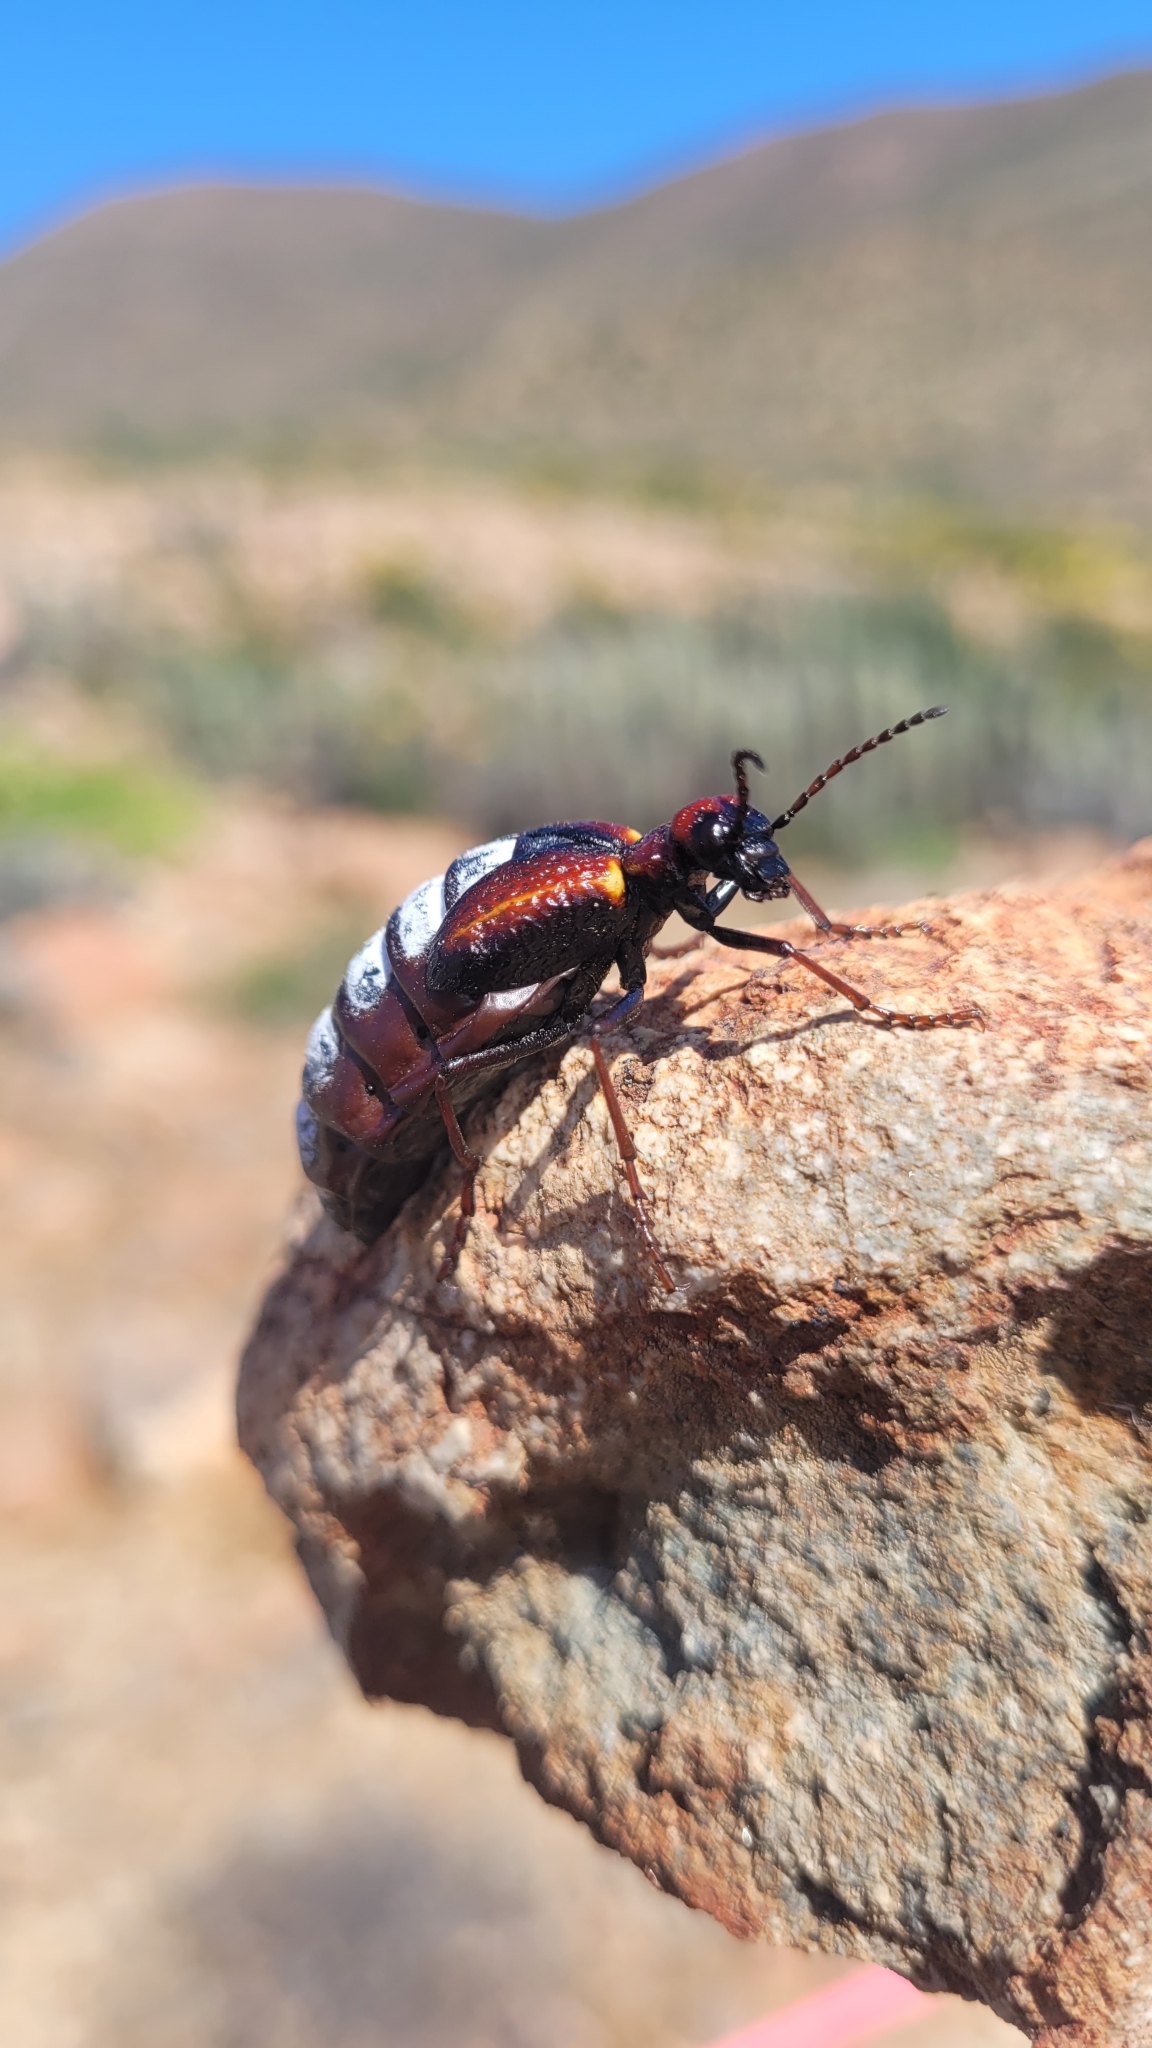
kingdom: Animalia
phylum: Arthropoda
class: Insecta
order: Coleoptera
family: Meloidae
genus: Pseudomeloe
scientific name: Pseudomeloe
